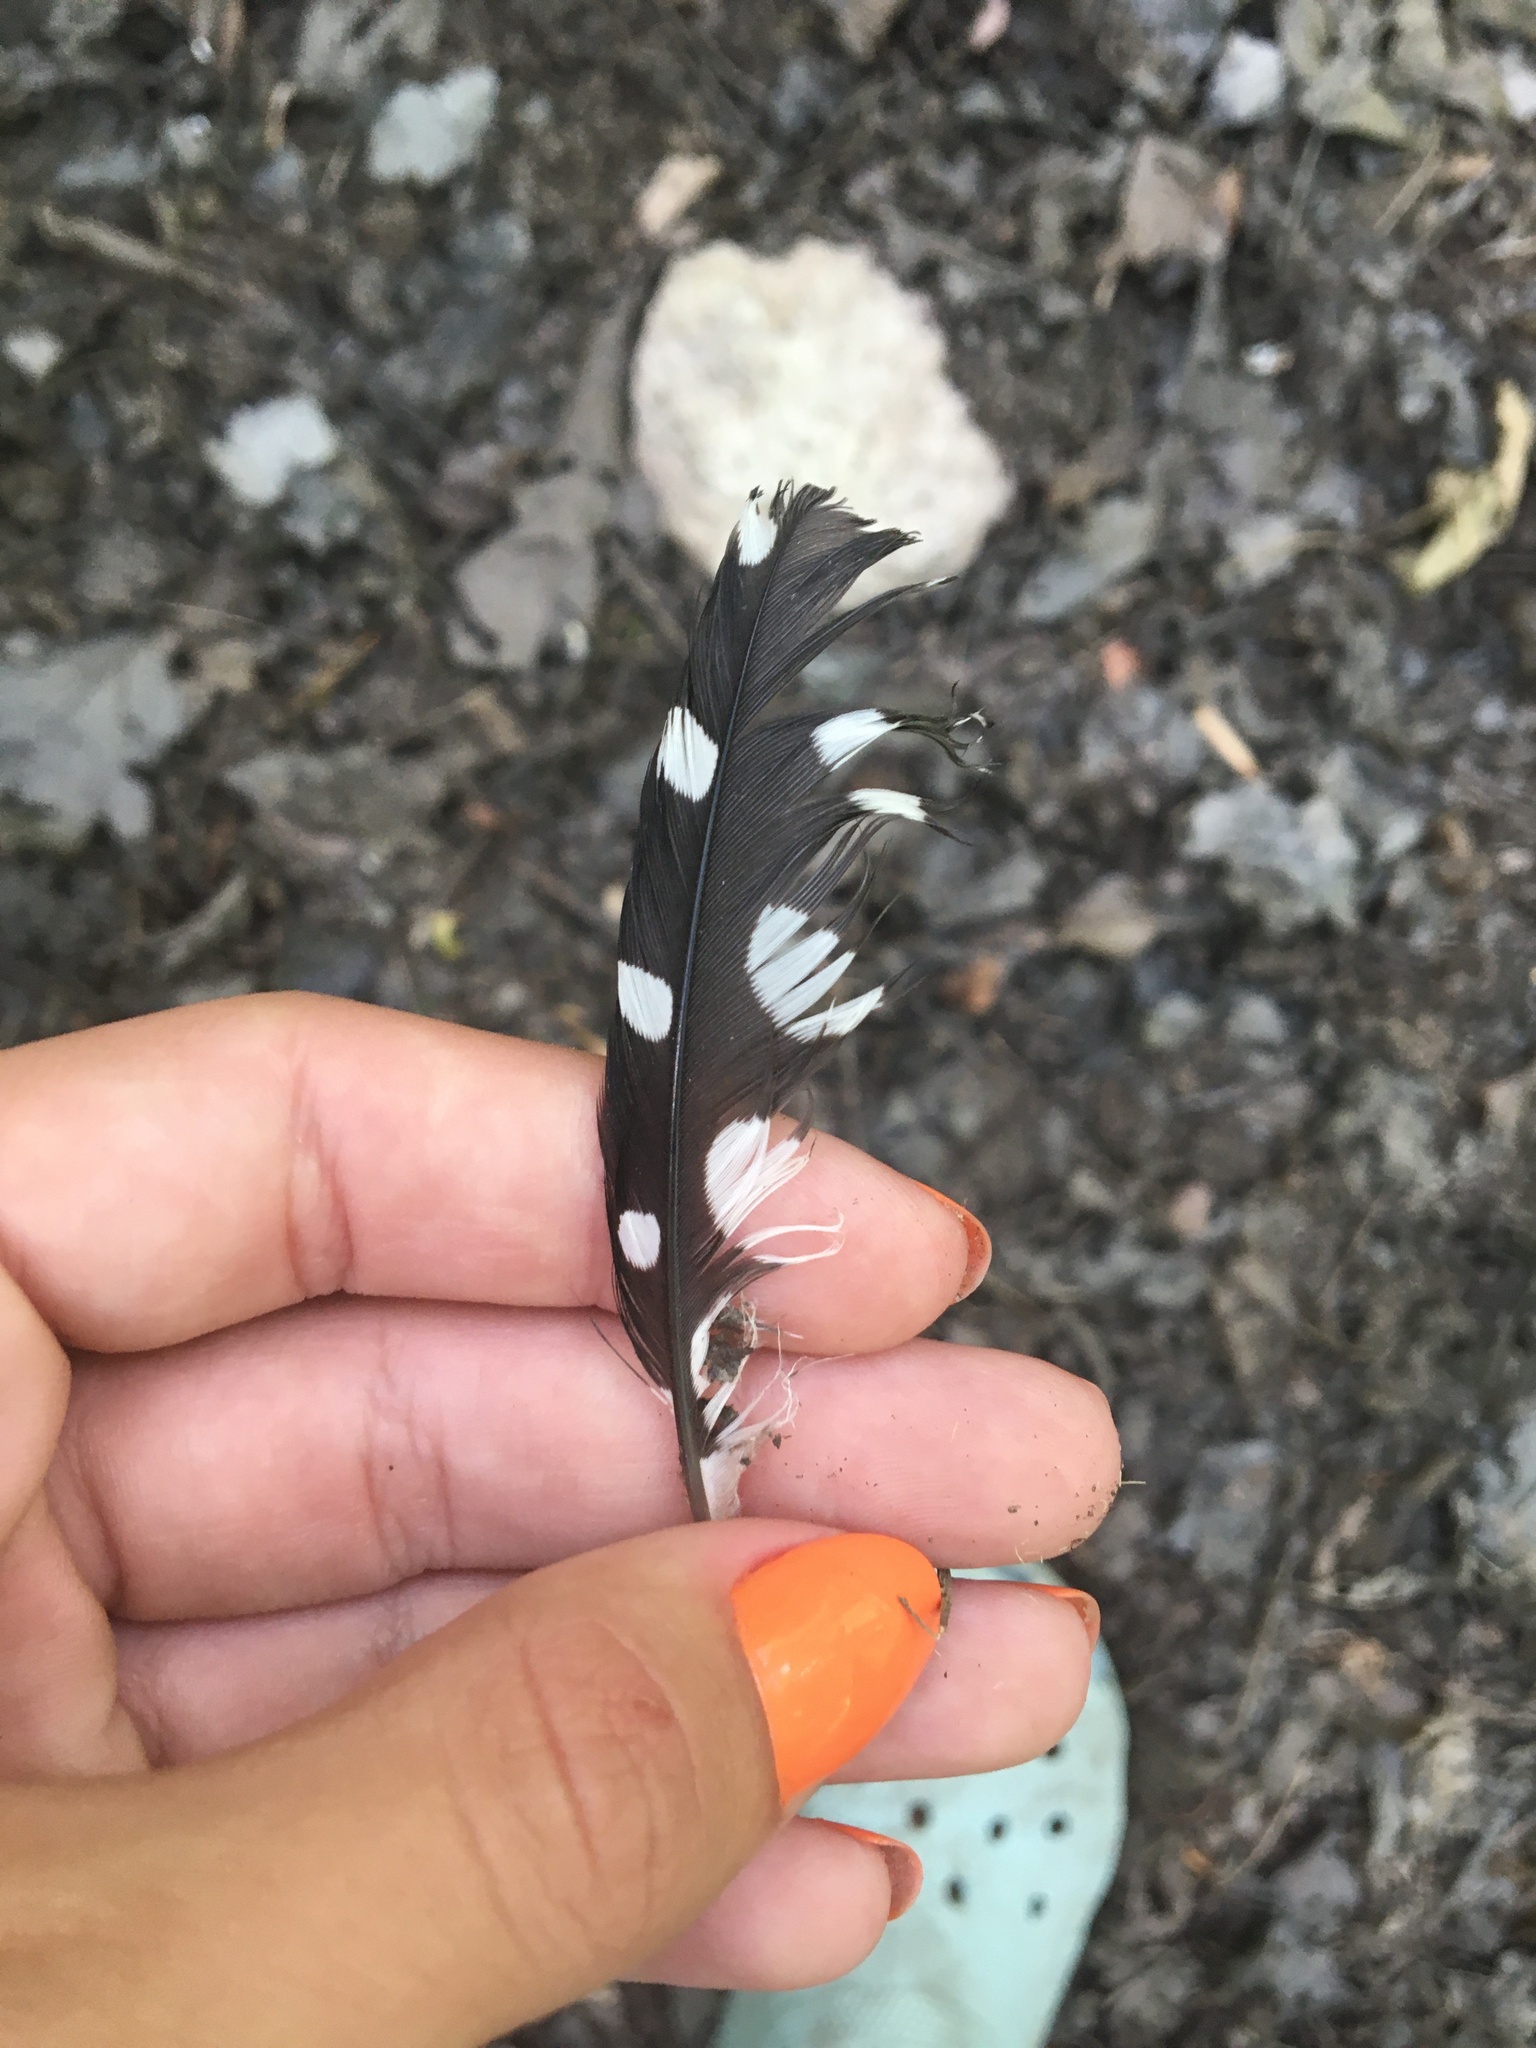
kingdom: Animalia
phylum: Chordata
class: Aves
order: Piciformes
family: Picidae
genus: Dryobates
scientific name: Dryobates
